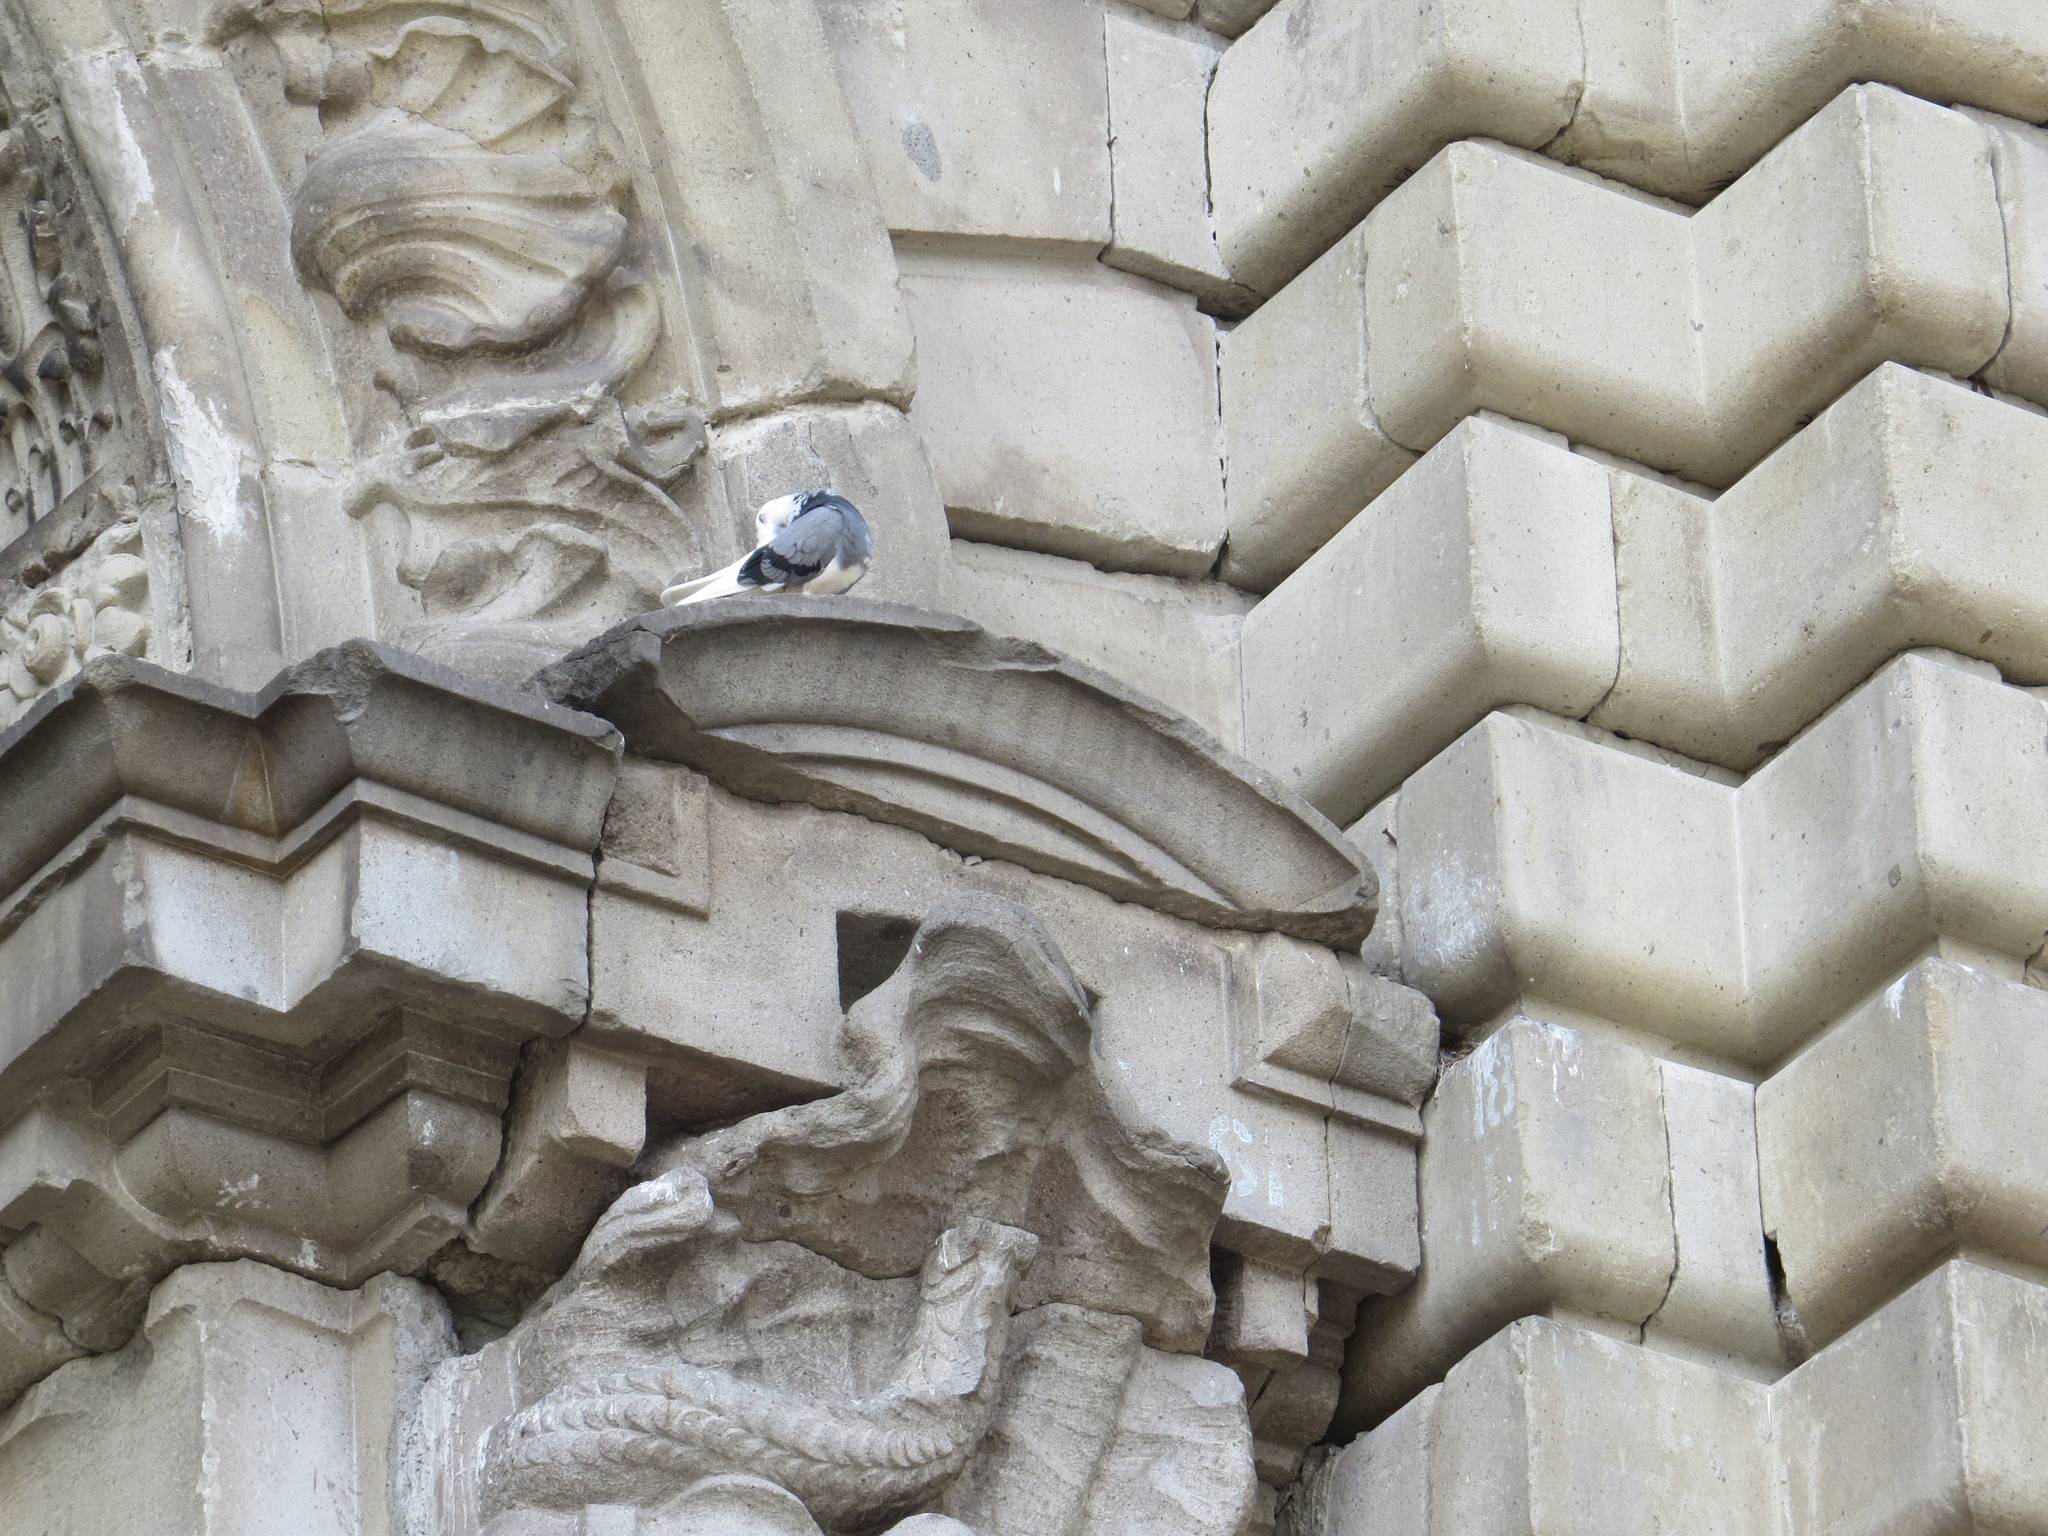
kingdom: Animalia
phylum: Chordata
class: Aves
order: Columbiformes
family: Columbidae
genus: Columba
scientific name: Columba livia
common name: Rock pigeon
